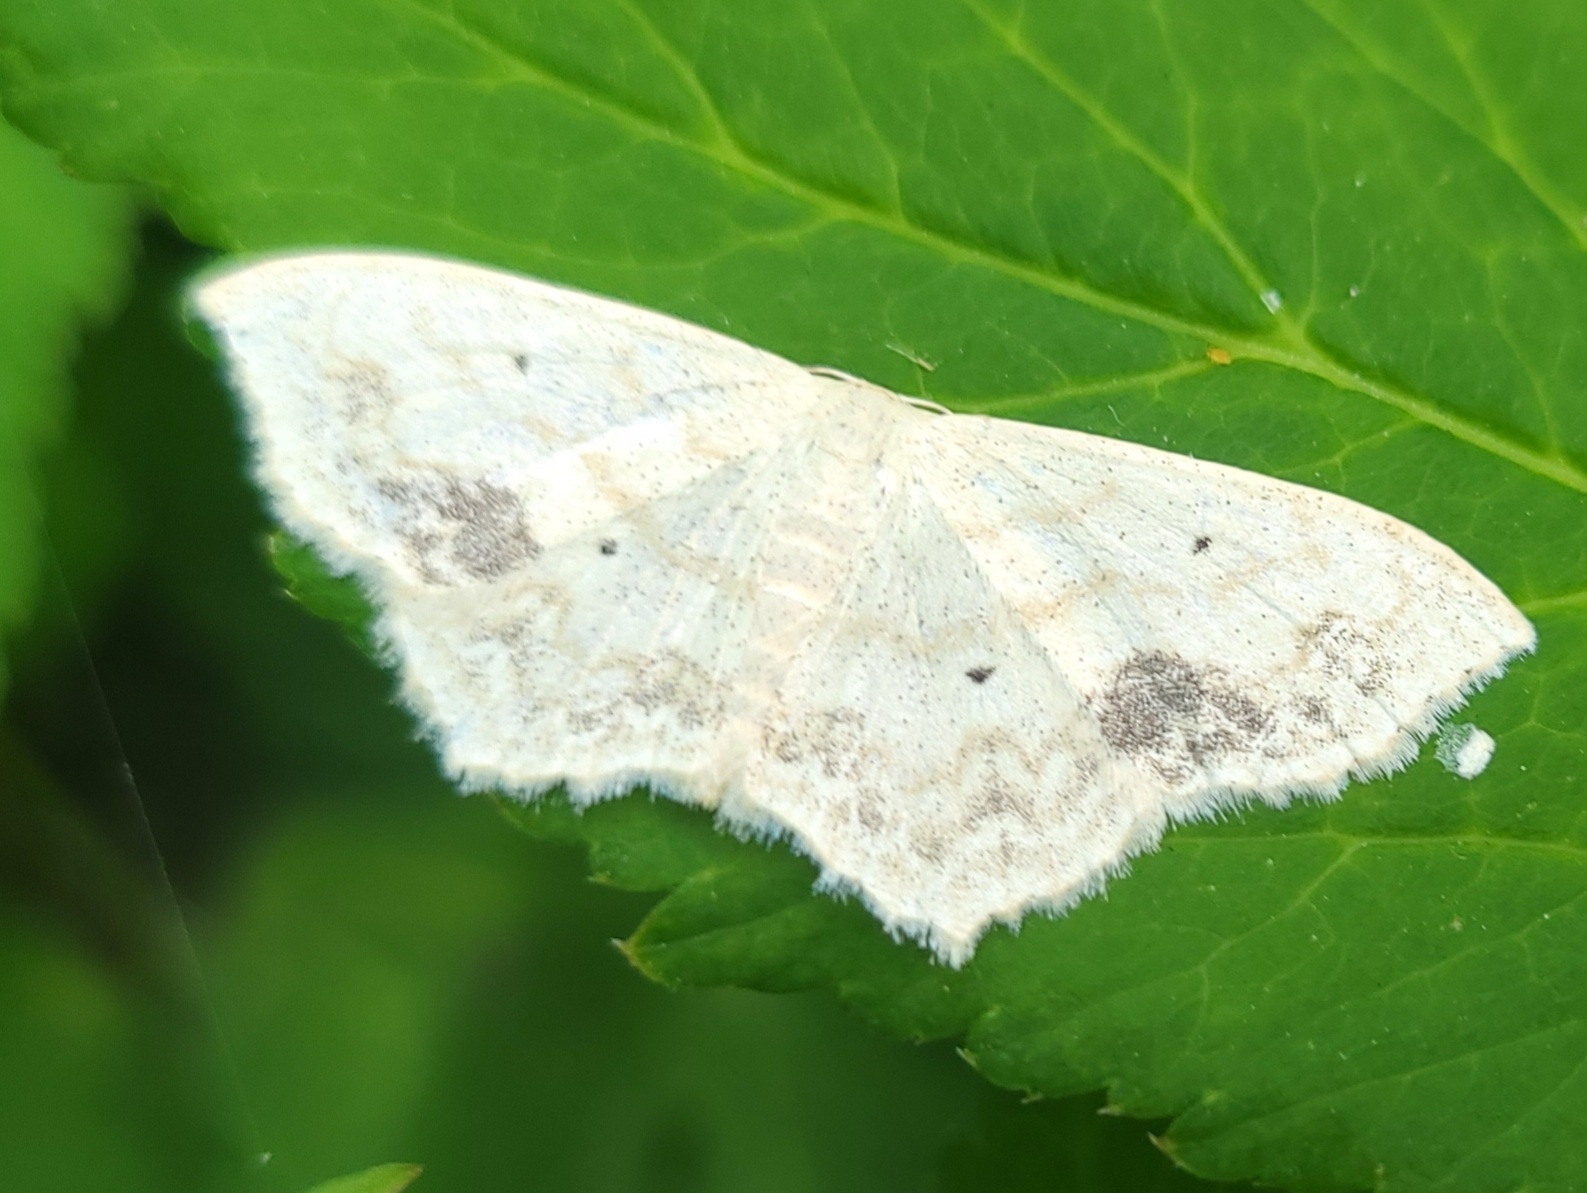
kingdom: Animalia
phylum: Arthropoda
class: Insecta
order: Lepidoptera
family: Geometridae
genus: Scopula
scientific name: Scopula limboundata
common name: Large lace border
